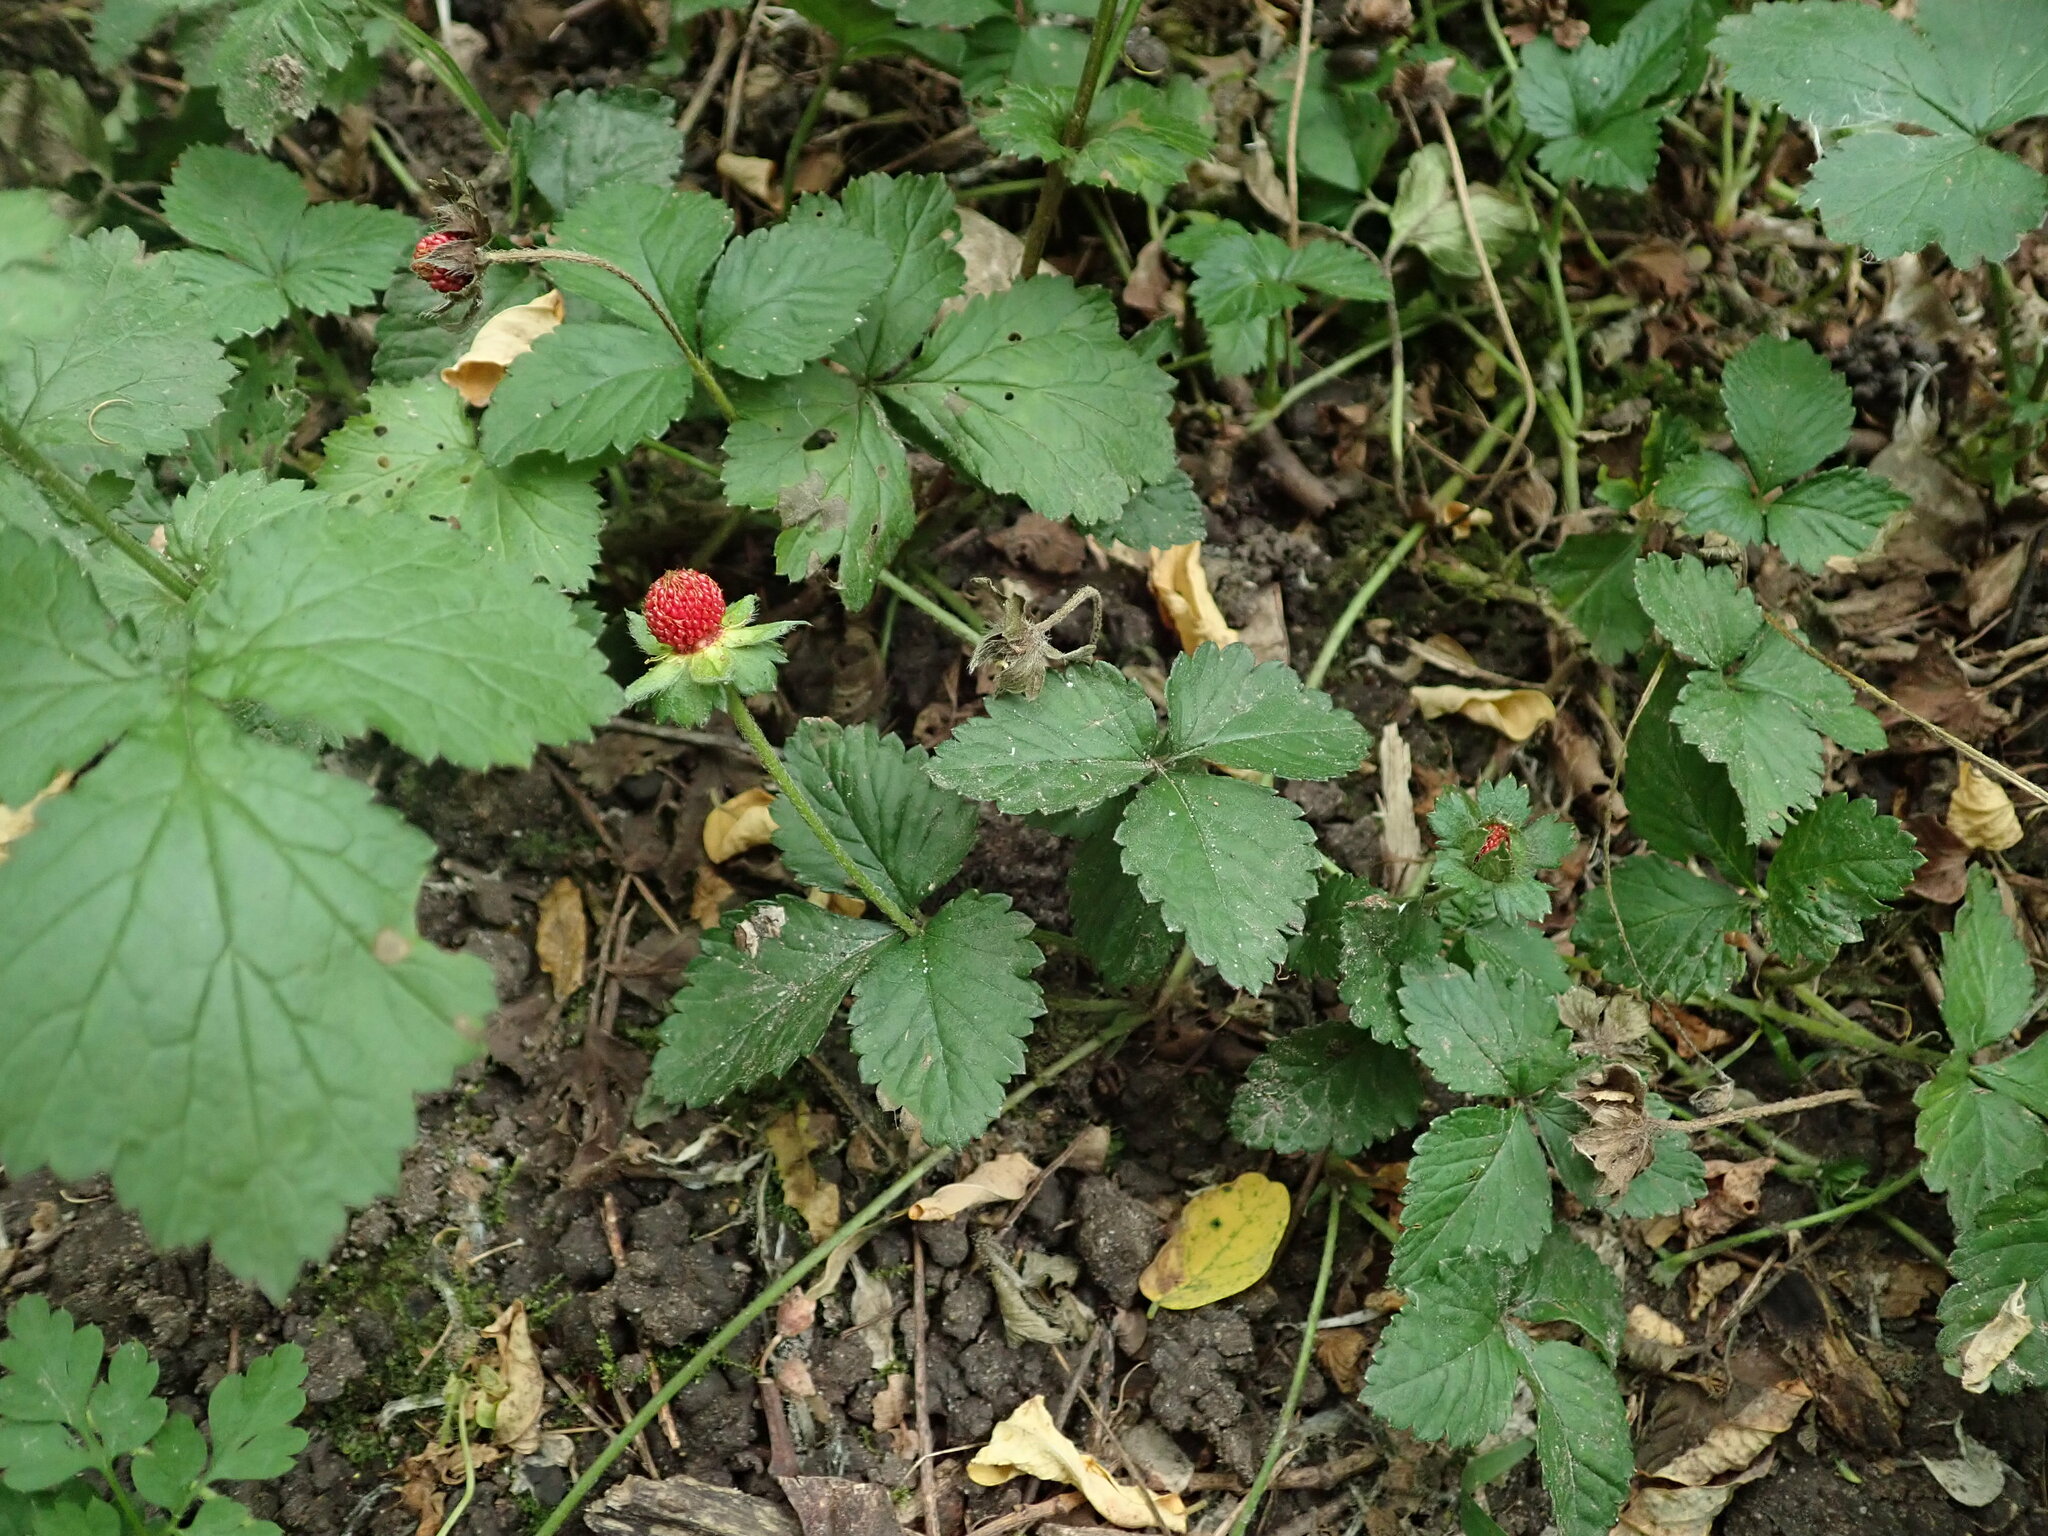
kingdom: Plantae
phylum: Tracheophyta
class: Magnoliopsida
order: Rosales
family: Rosaceae
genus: Potentilla
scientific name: Potentilla indica
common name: Yellow-flowered strawberry
